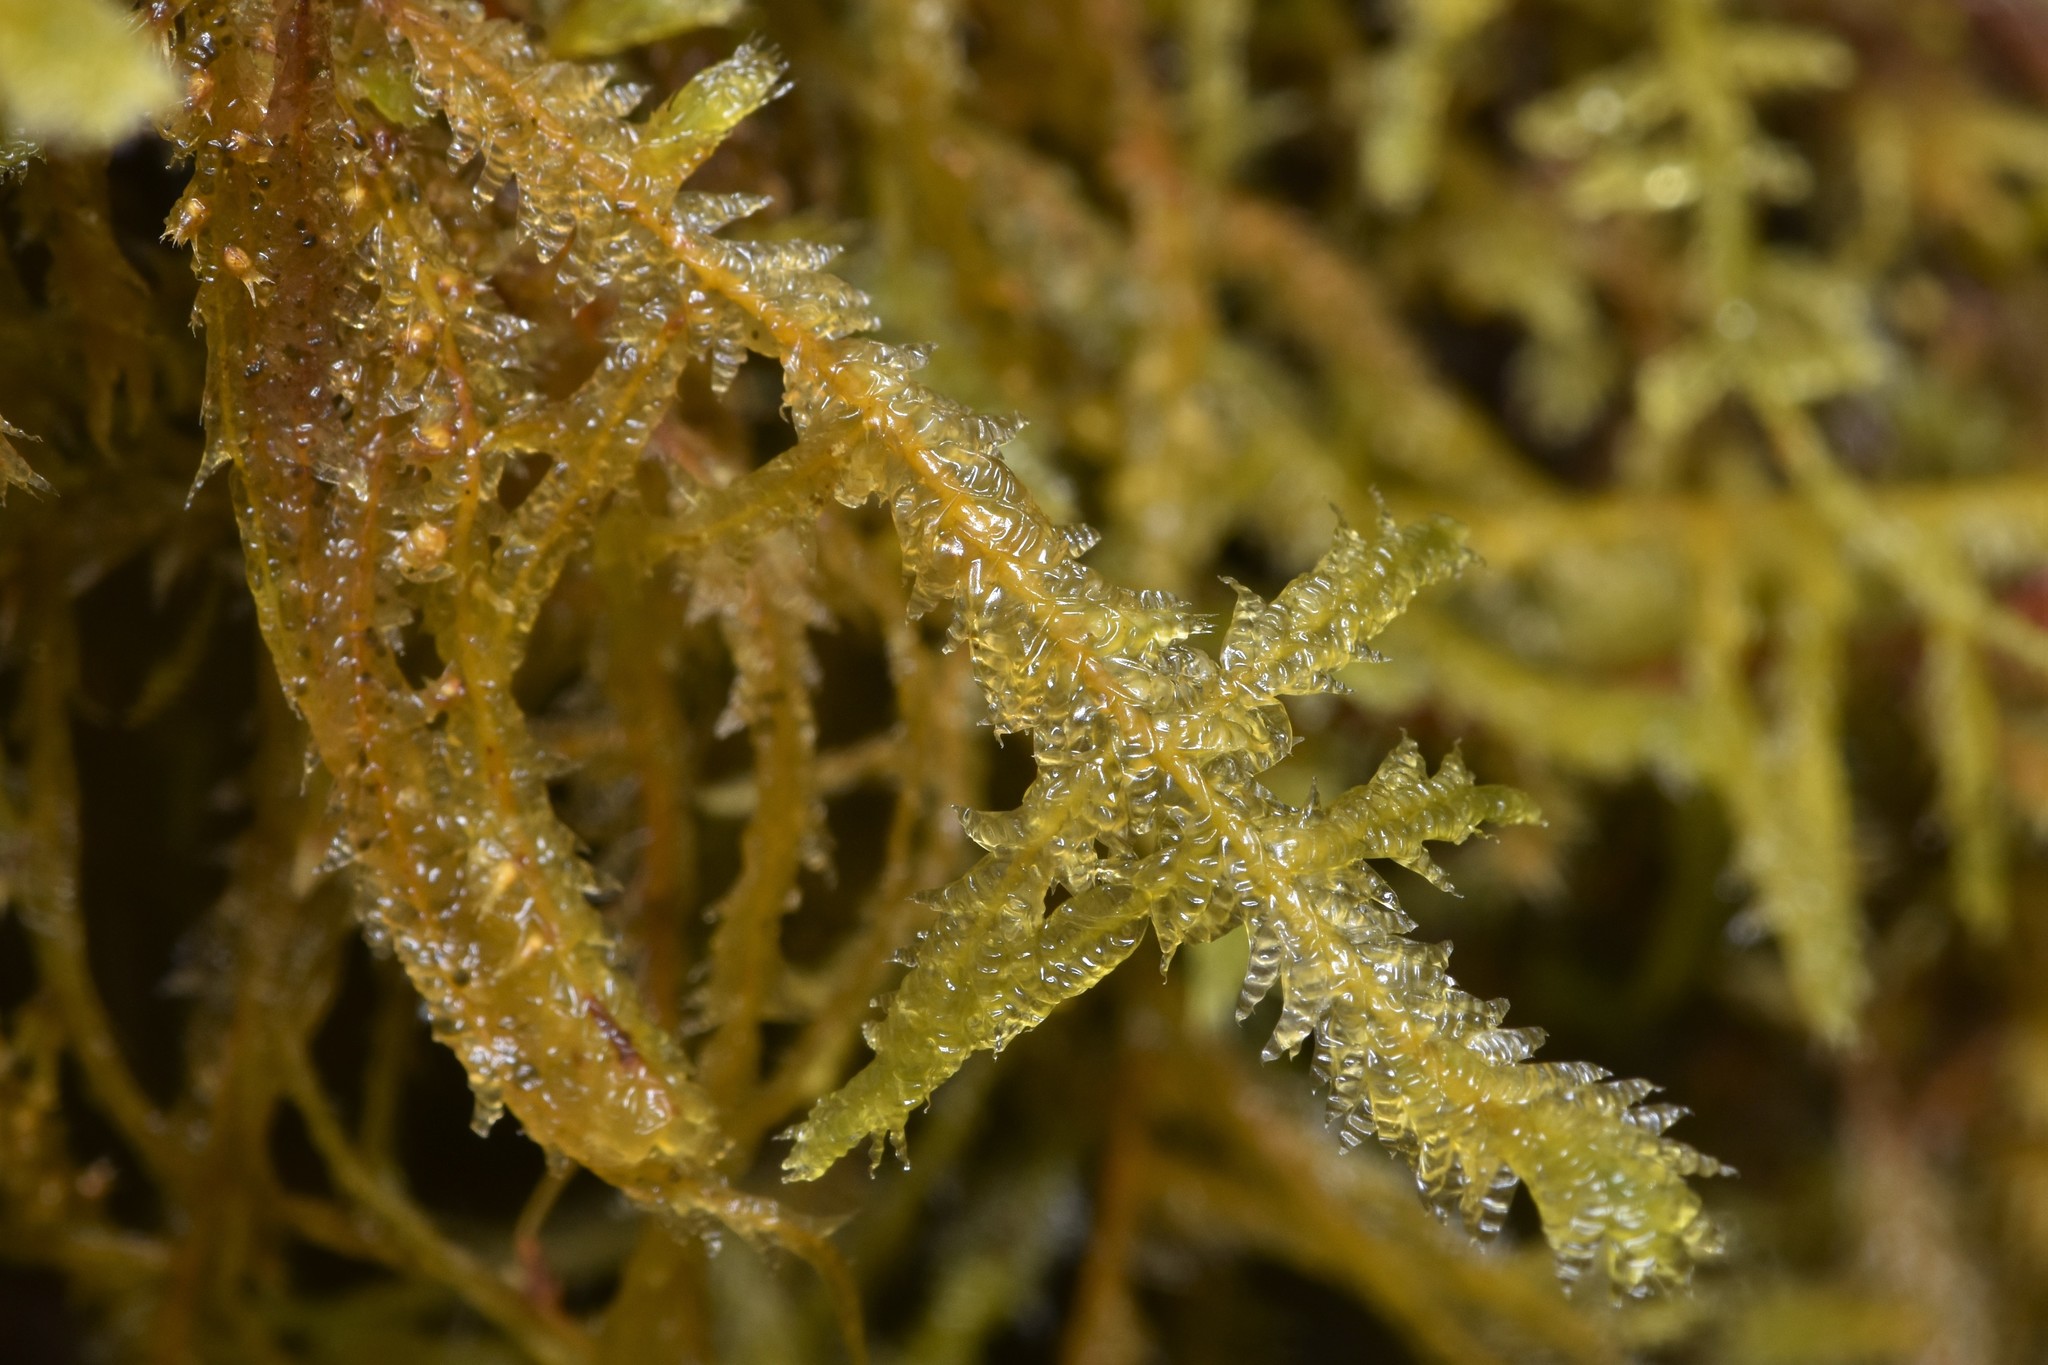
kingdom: Plantae
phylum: Bryophyta
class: Bryopsida
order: Hypnales
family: Neckeraceae
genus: Neckera
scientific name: Neckera douglasii
